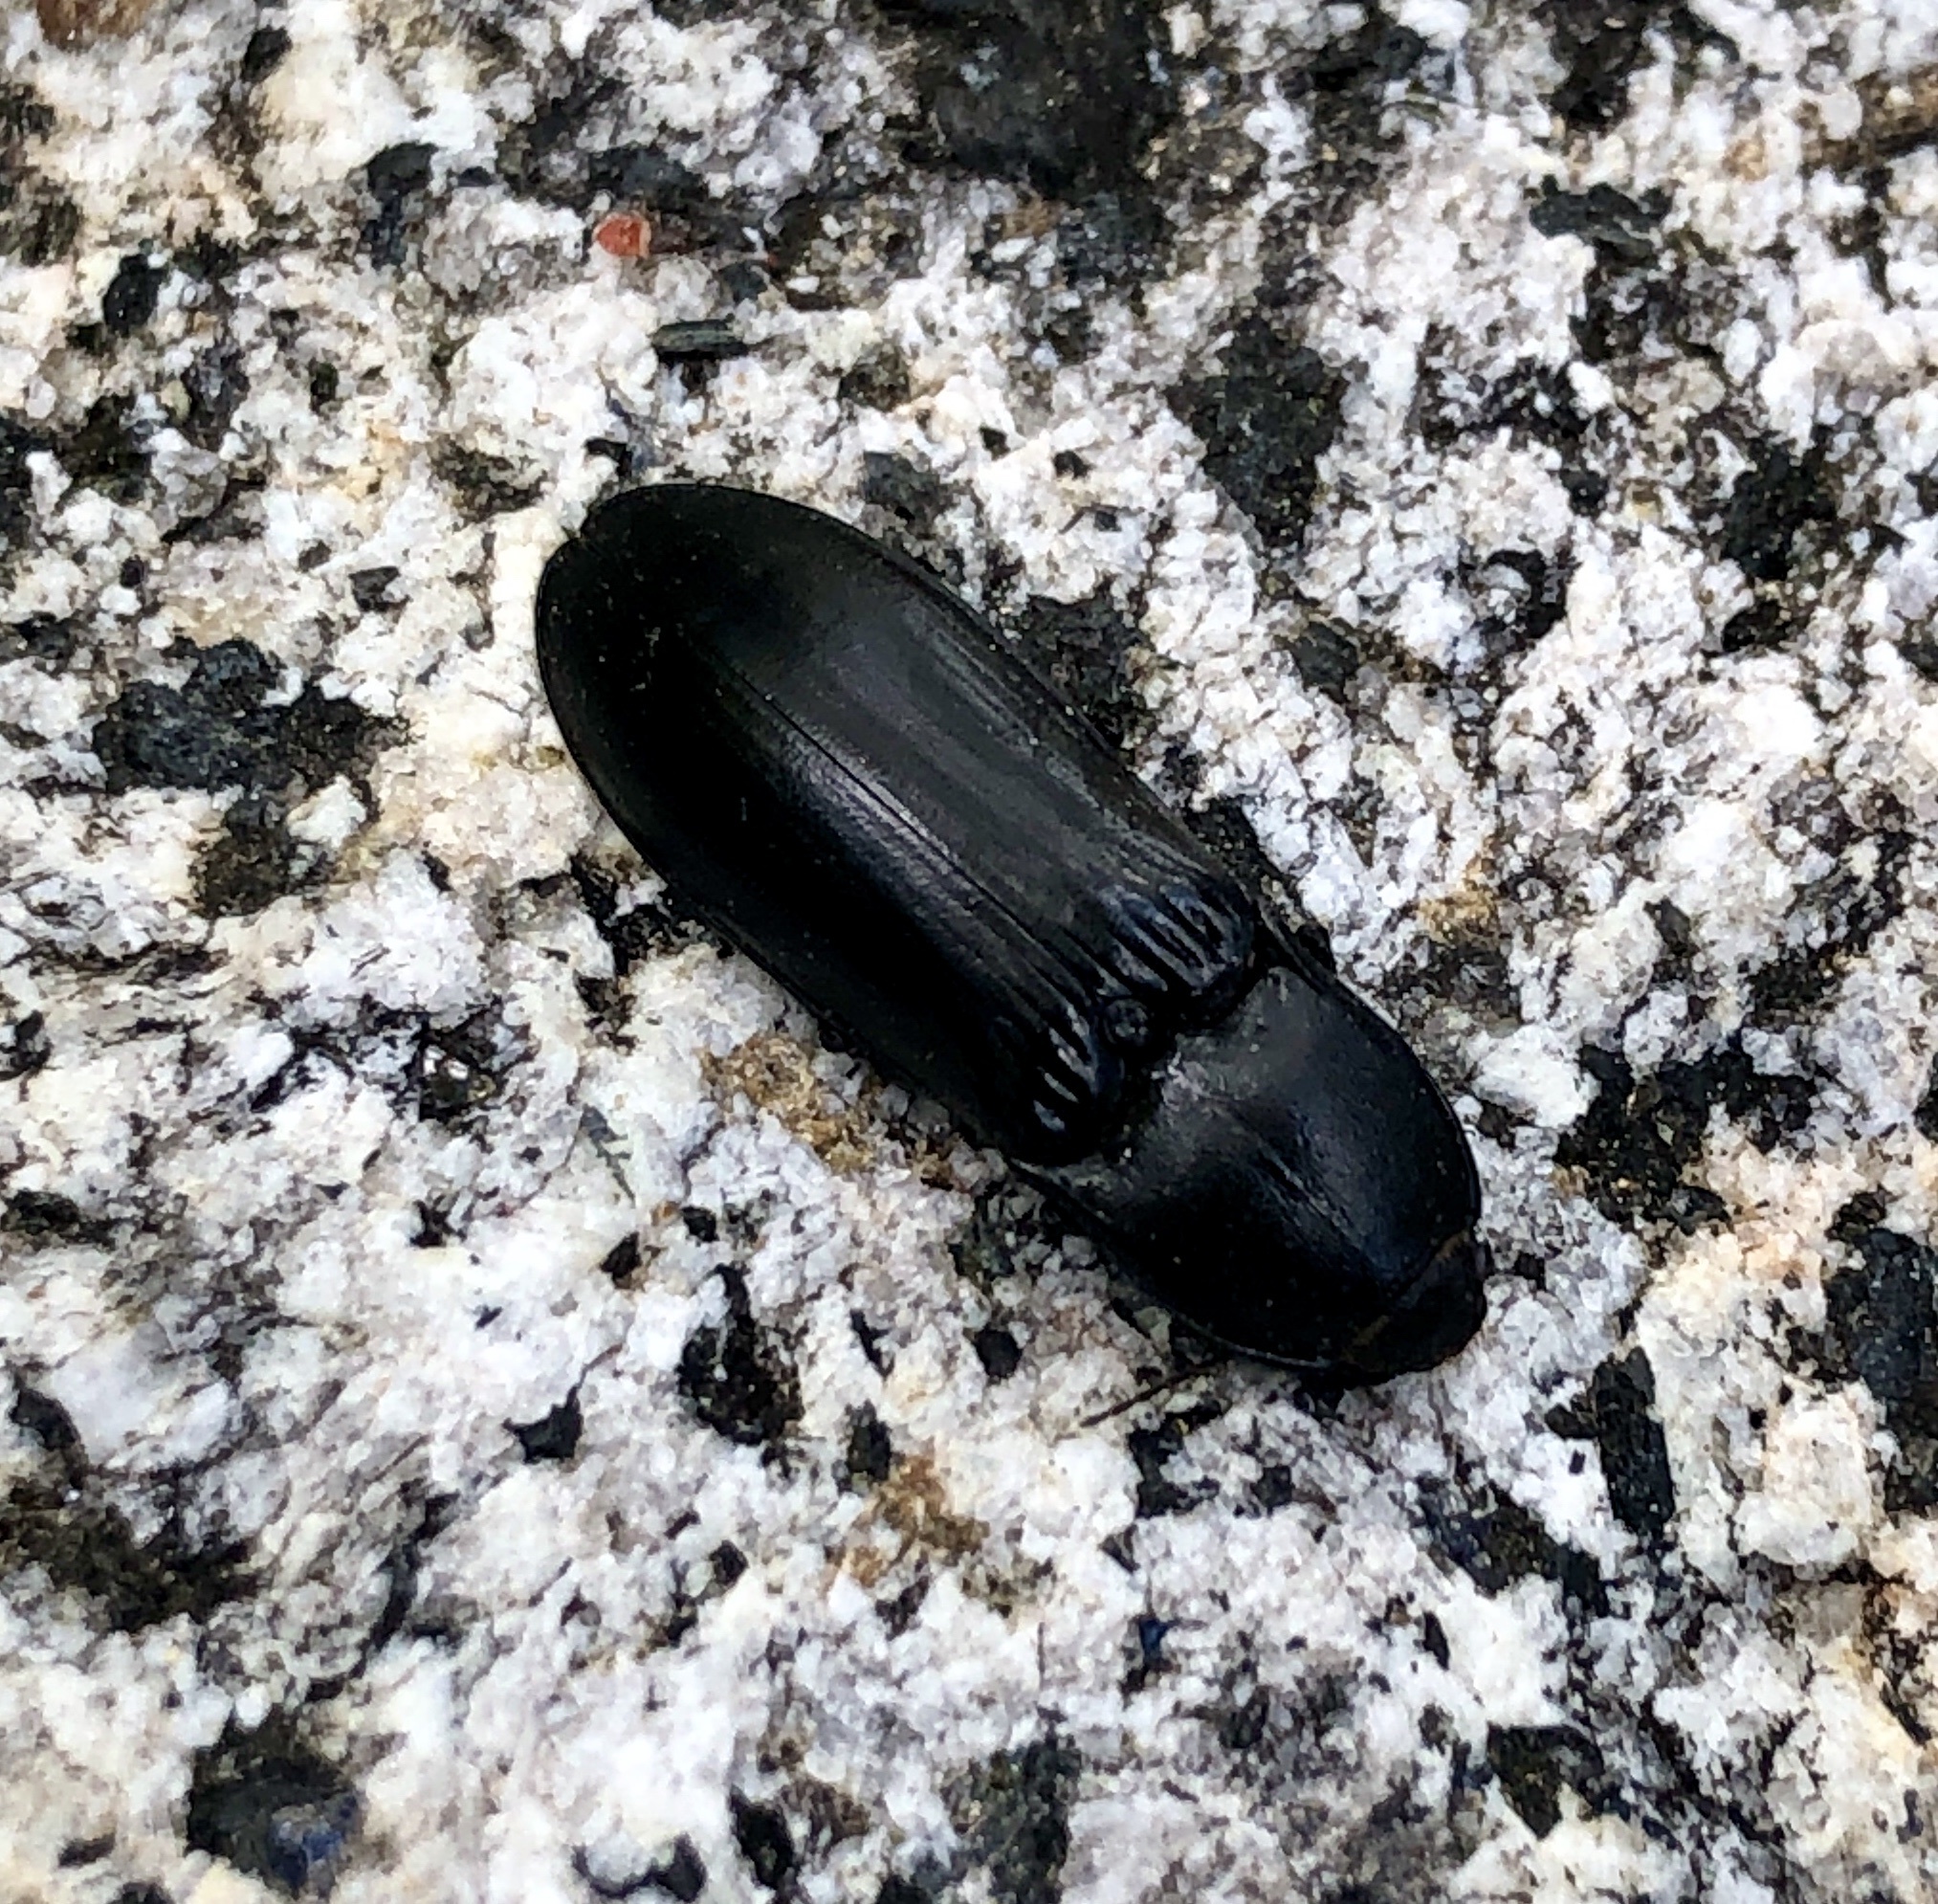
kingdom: Animalia
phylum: Arthropoda
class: Insecta
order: Coleoptera
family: Elateridae
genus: Melanactes
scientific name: Melanactes
